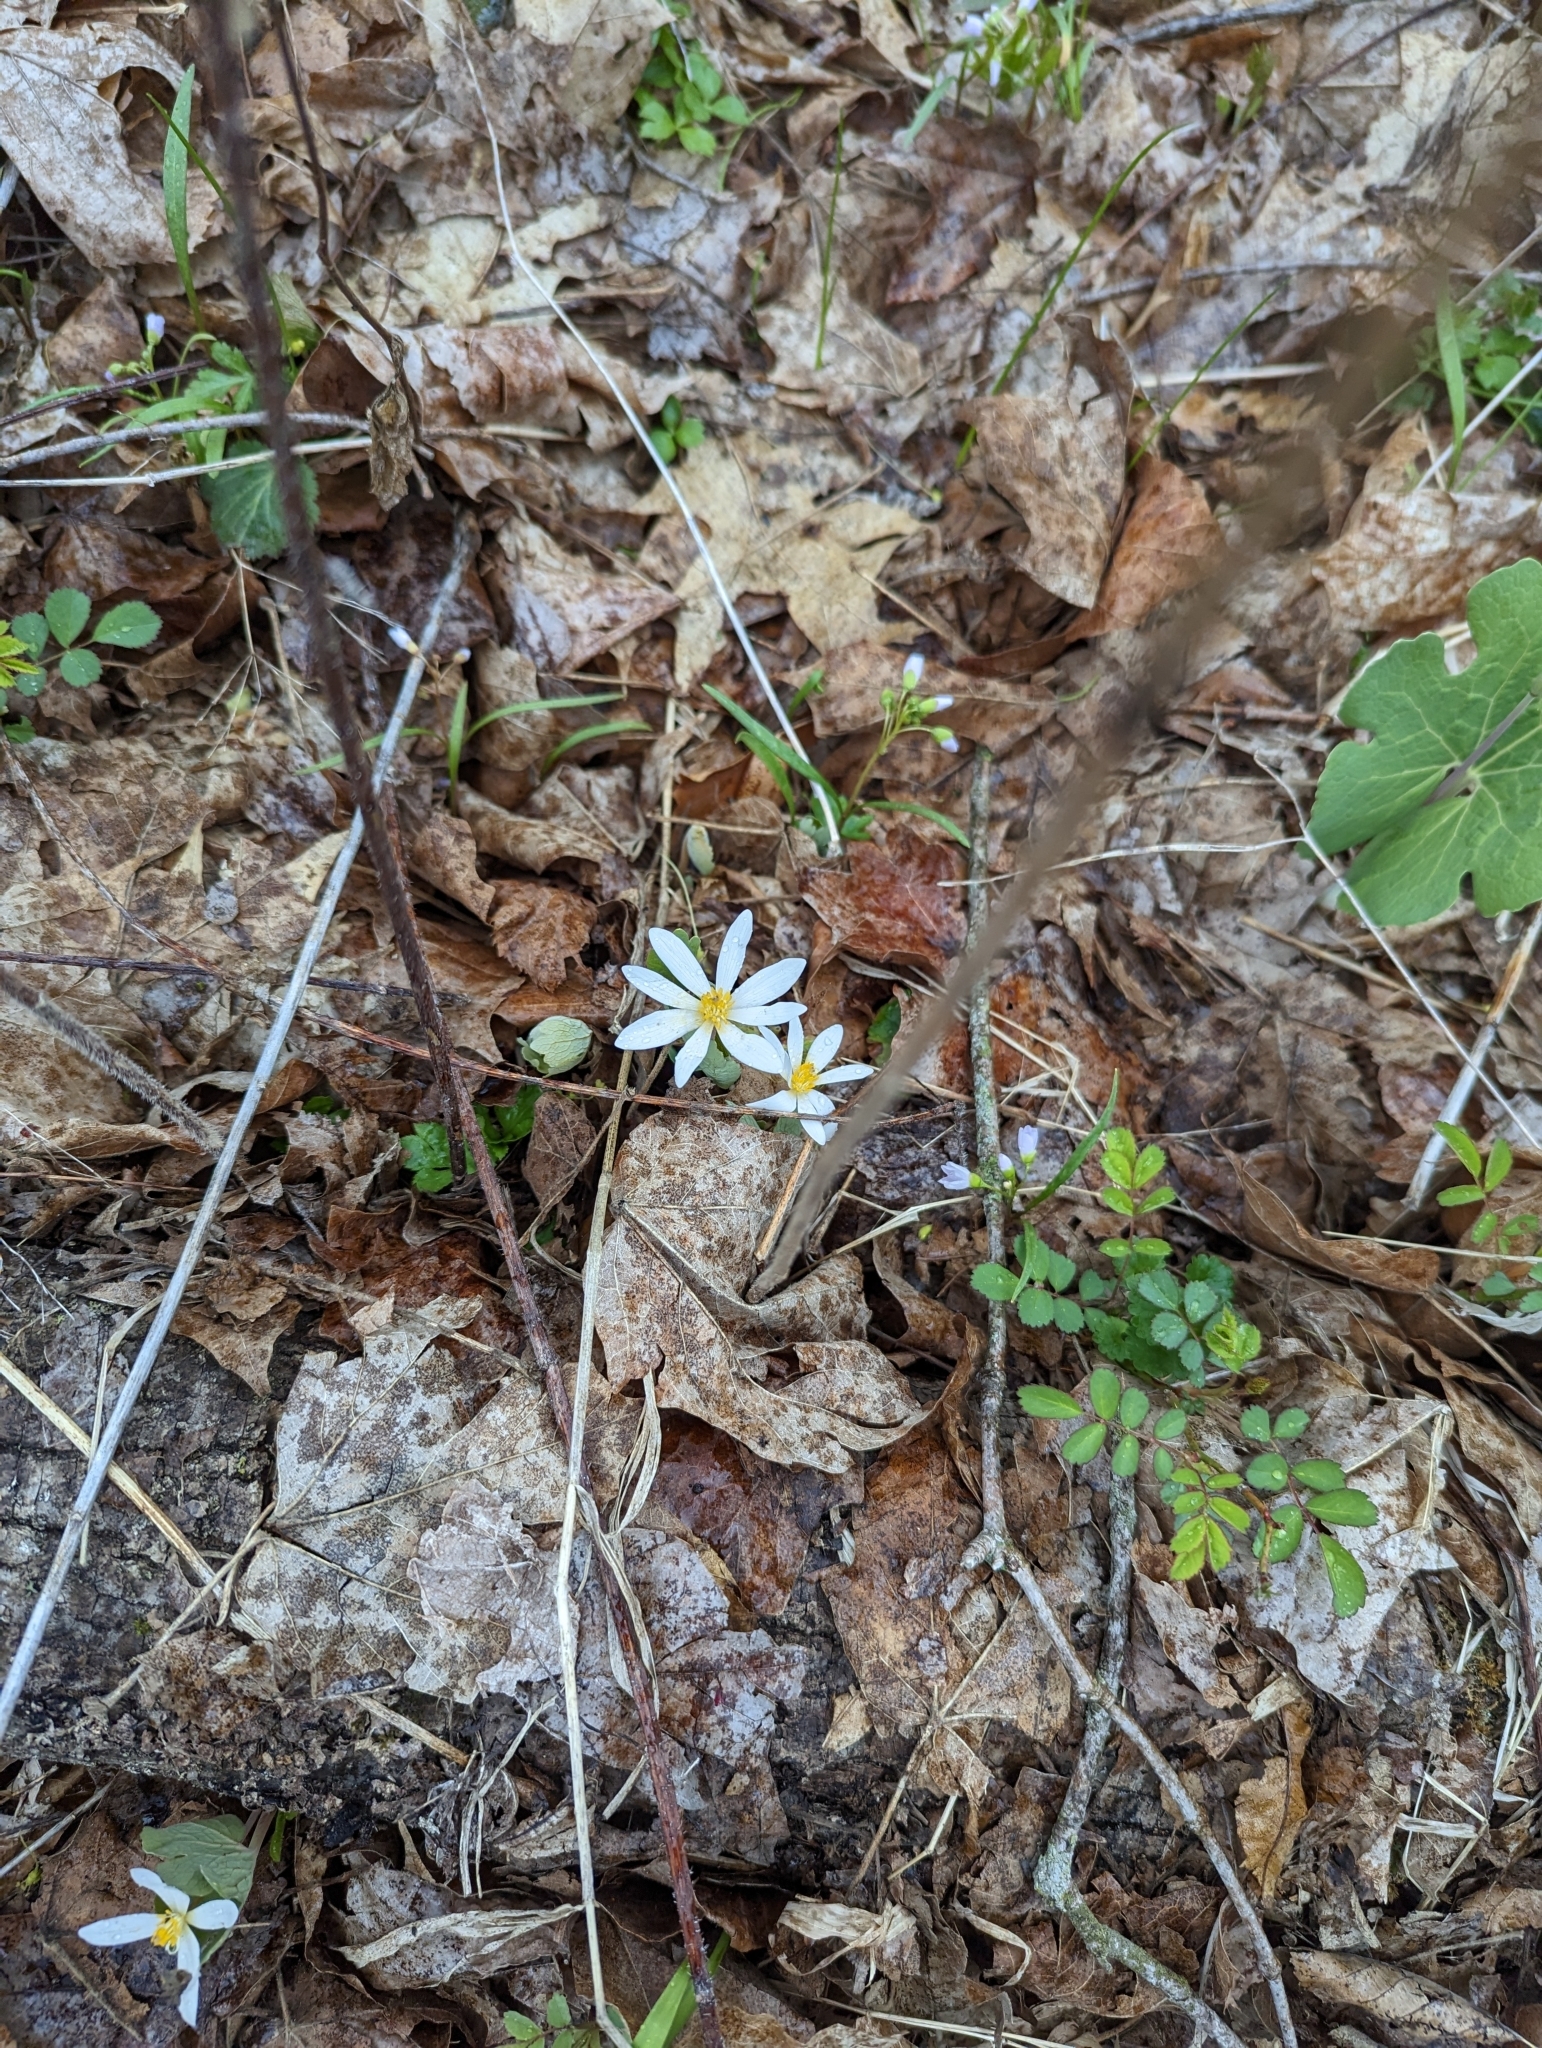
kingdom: Plantae
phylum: Tracheophyta
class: Magnoliopsida
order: Ranunculales
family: Papaveraceae
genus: Sanguinaria
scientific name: Sanguinaria canadensis
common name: Bloodroot
